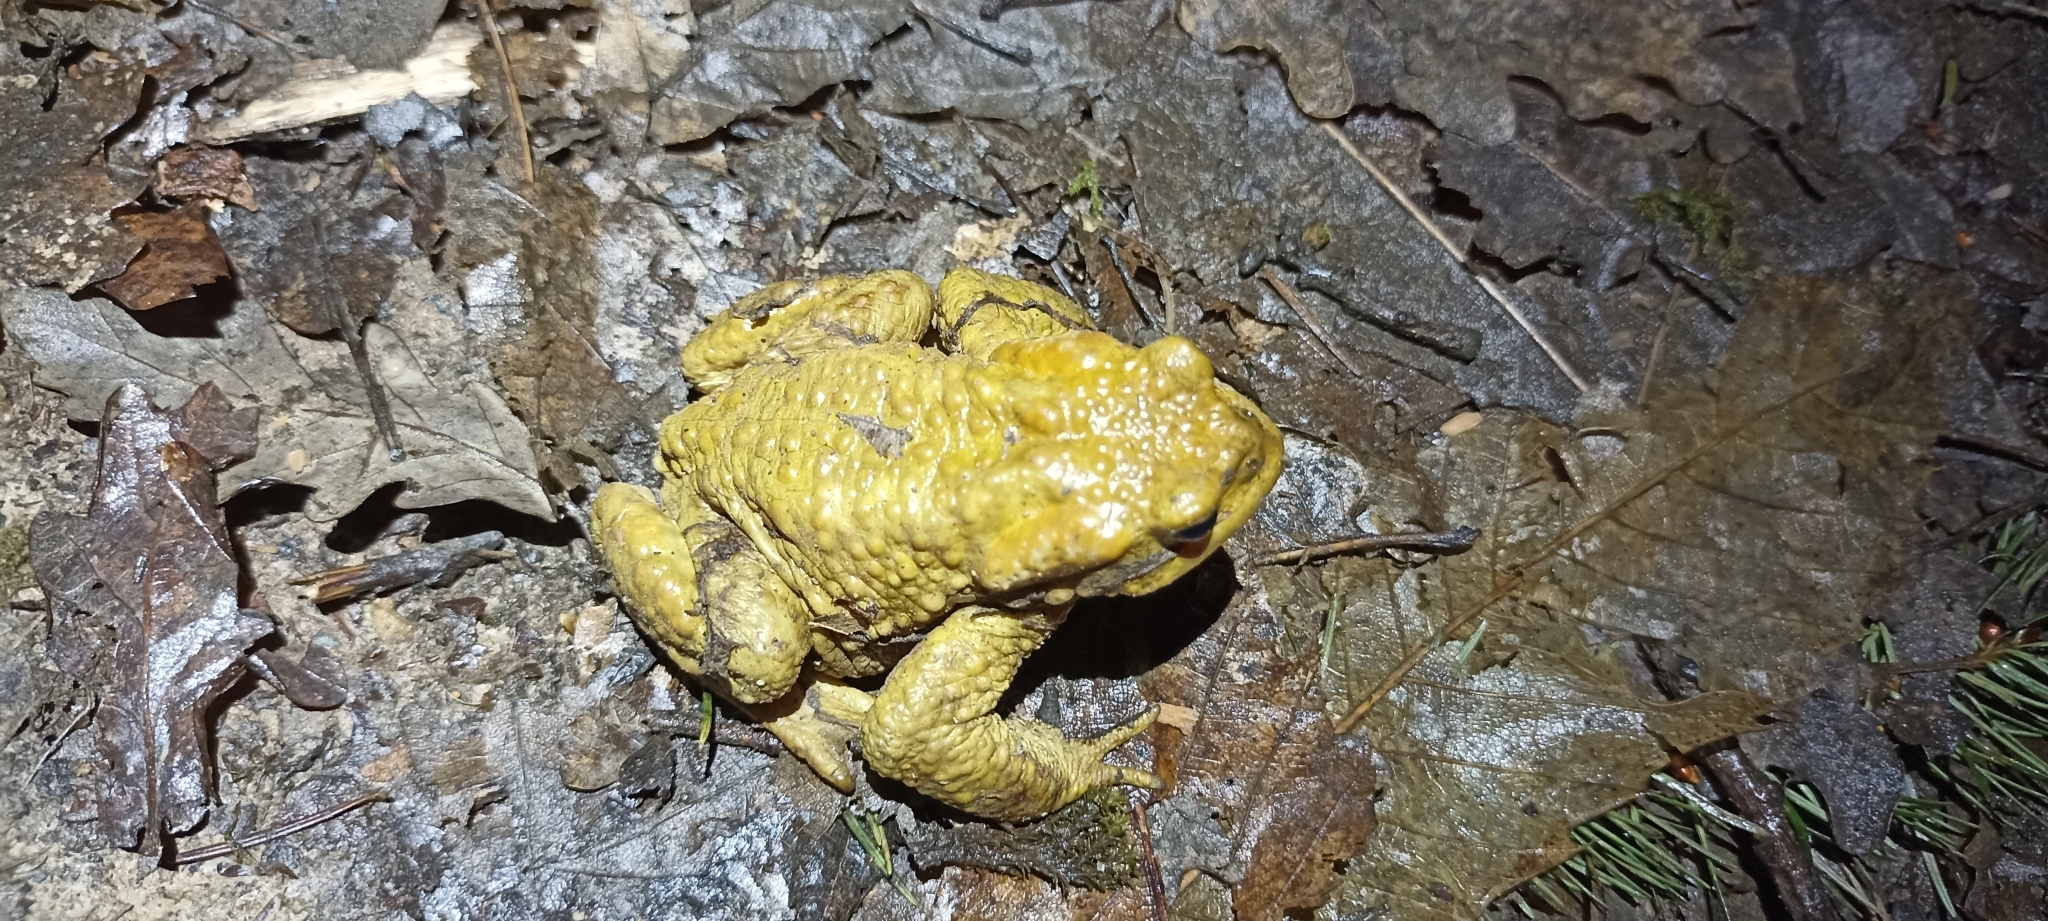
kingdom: Animalia
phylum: Chordata
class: Amphibia
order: Anura
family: Bufonidae
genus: Bufo
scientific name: Bufo spinosus
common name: Western common toad
